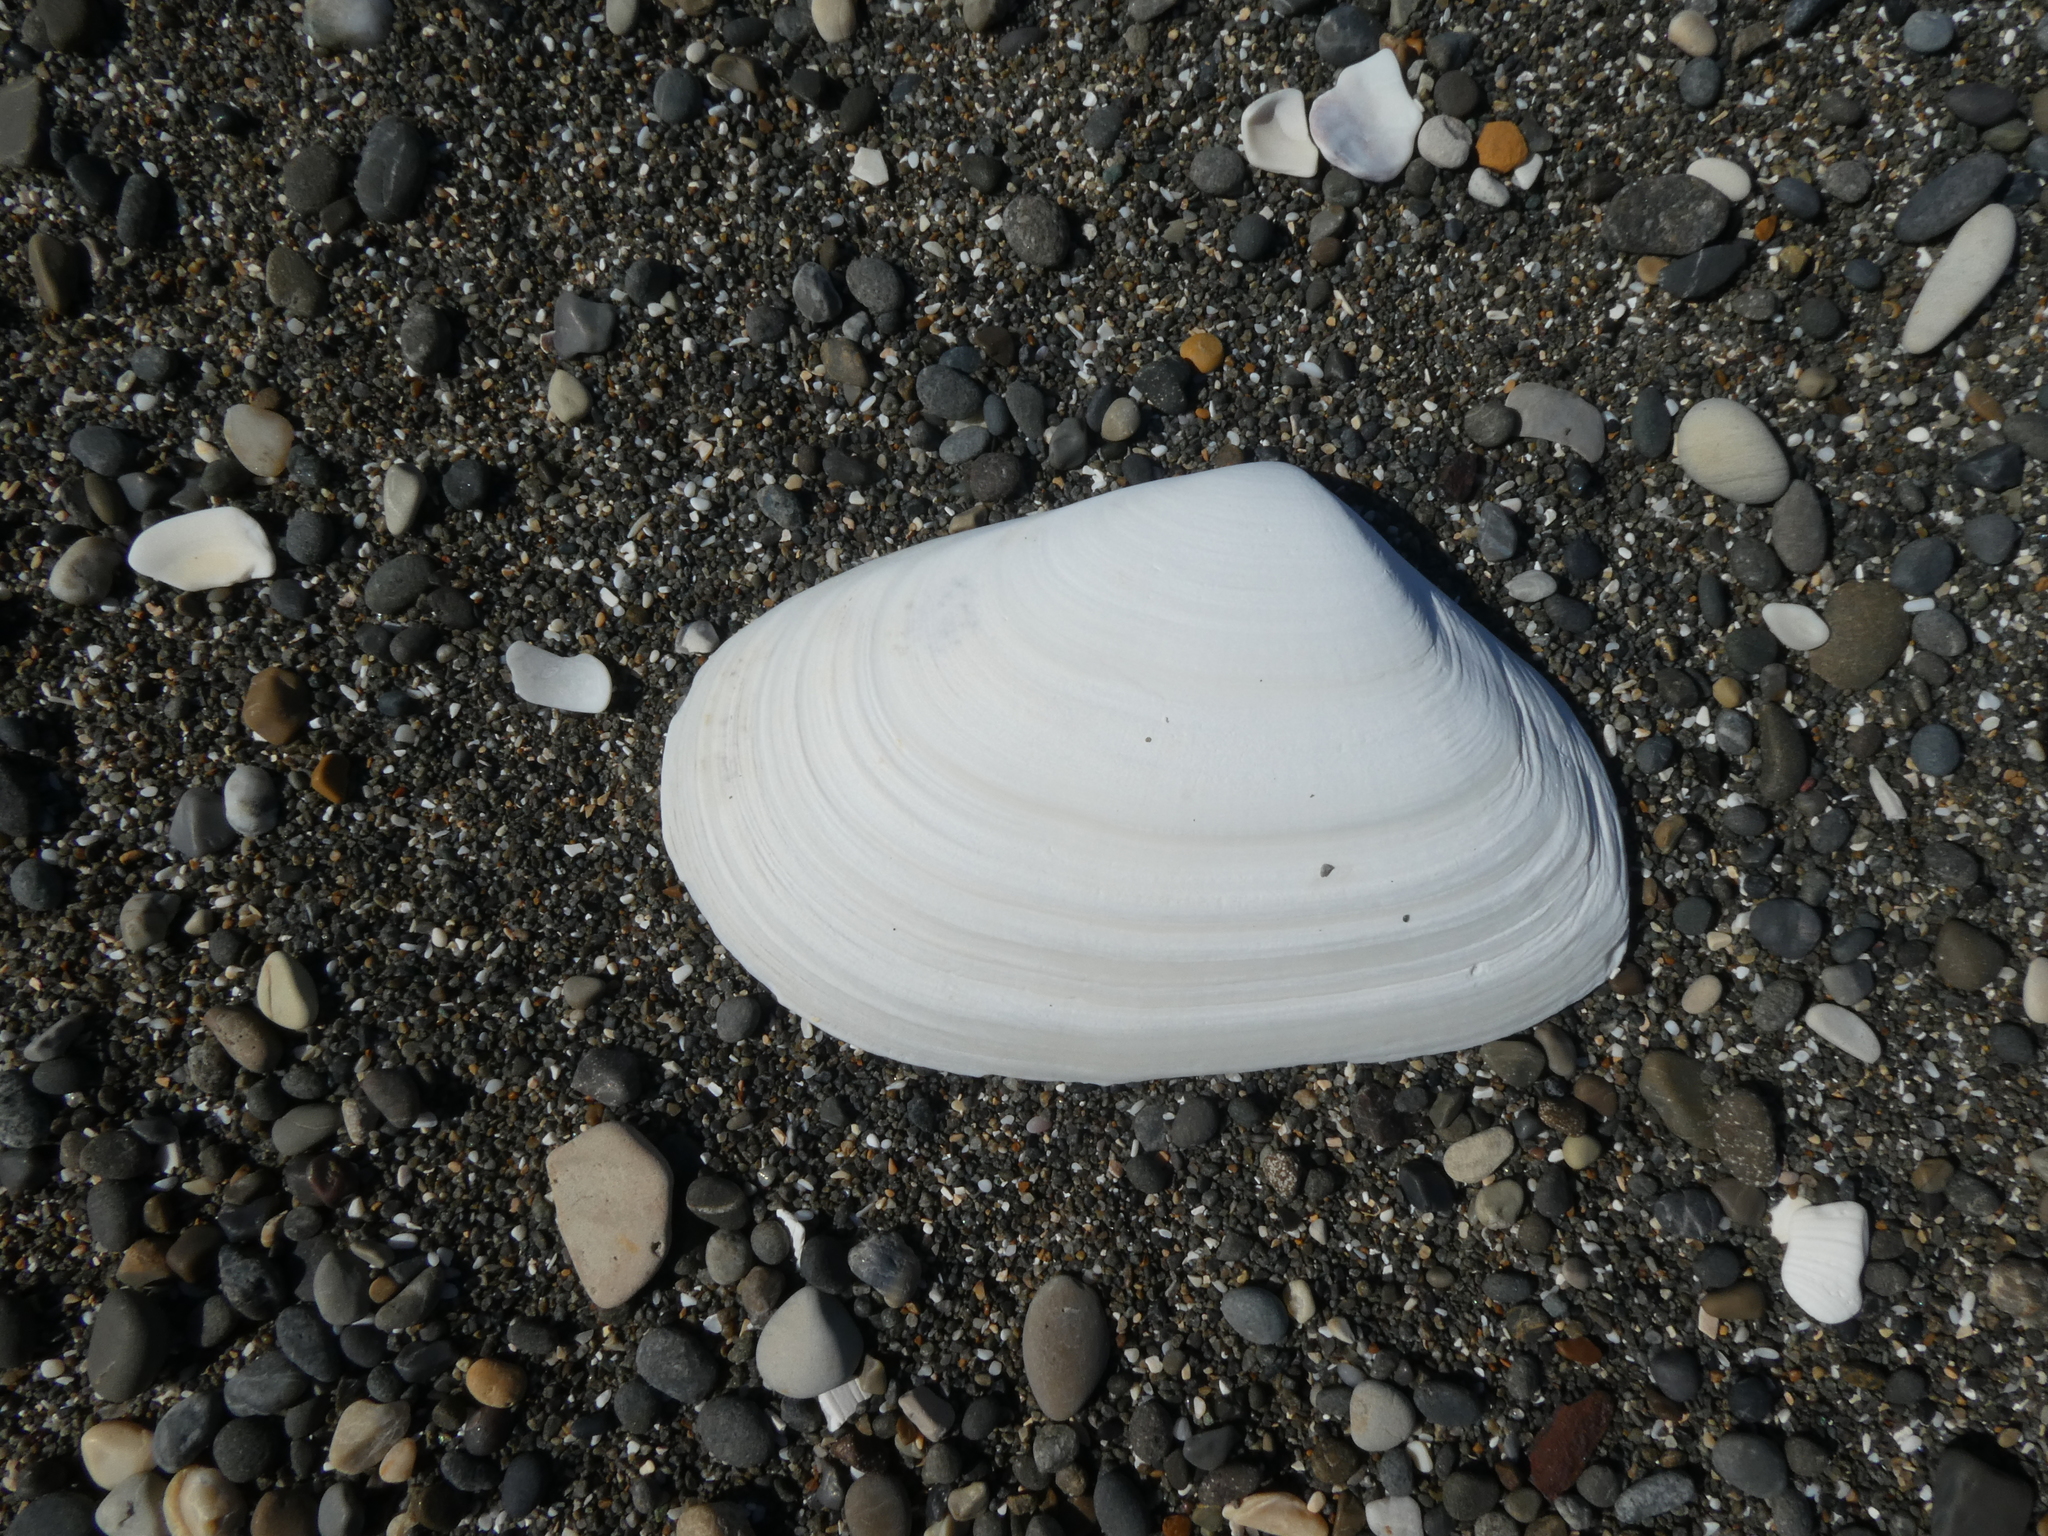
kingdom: Animalia
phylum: Mollusca
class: Bivalvia
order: Venerida
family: Mesodesmatidae
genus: Paphies
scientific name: Paphies subtriangulata
